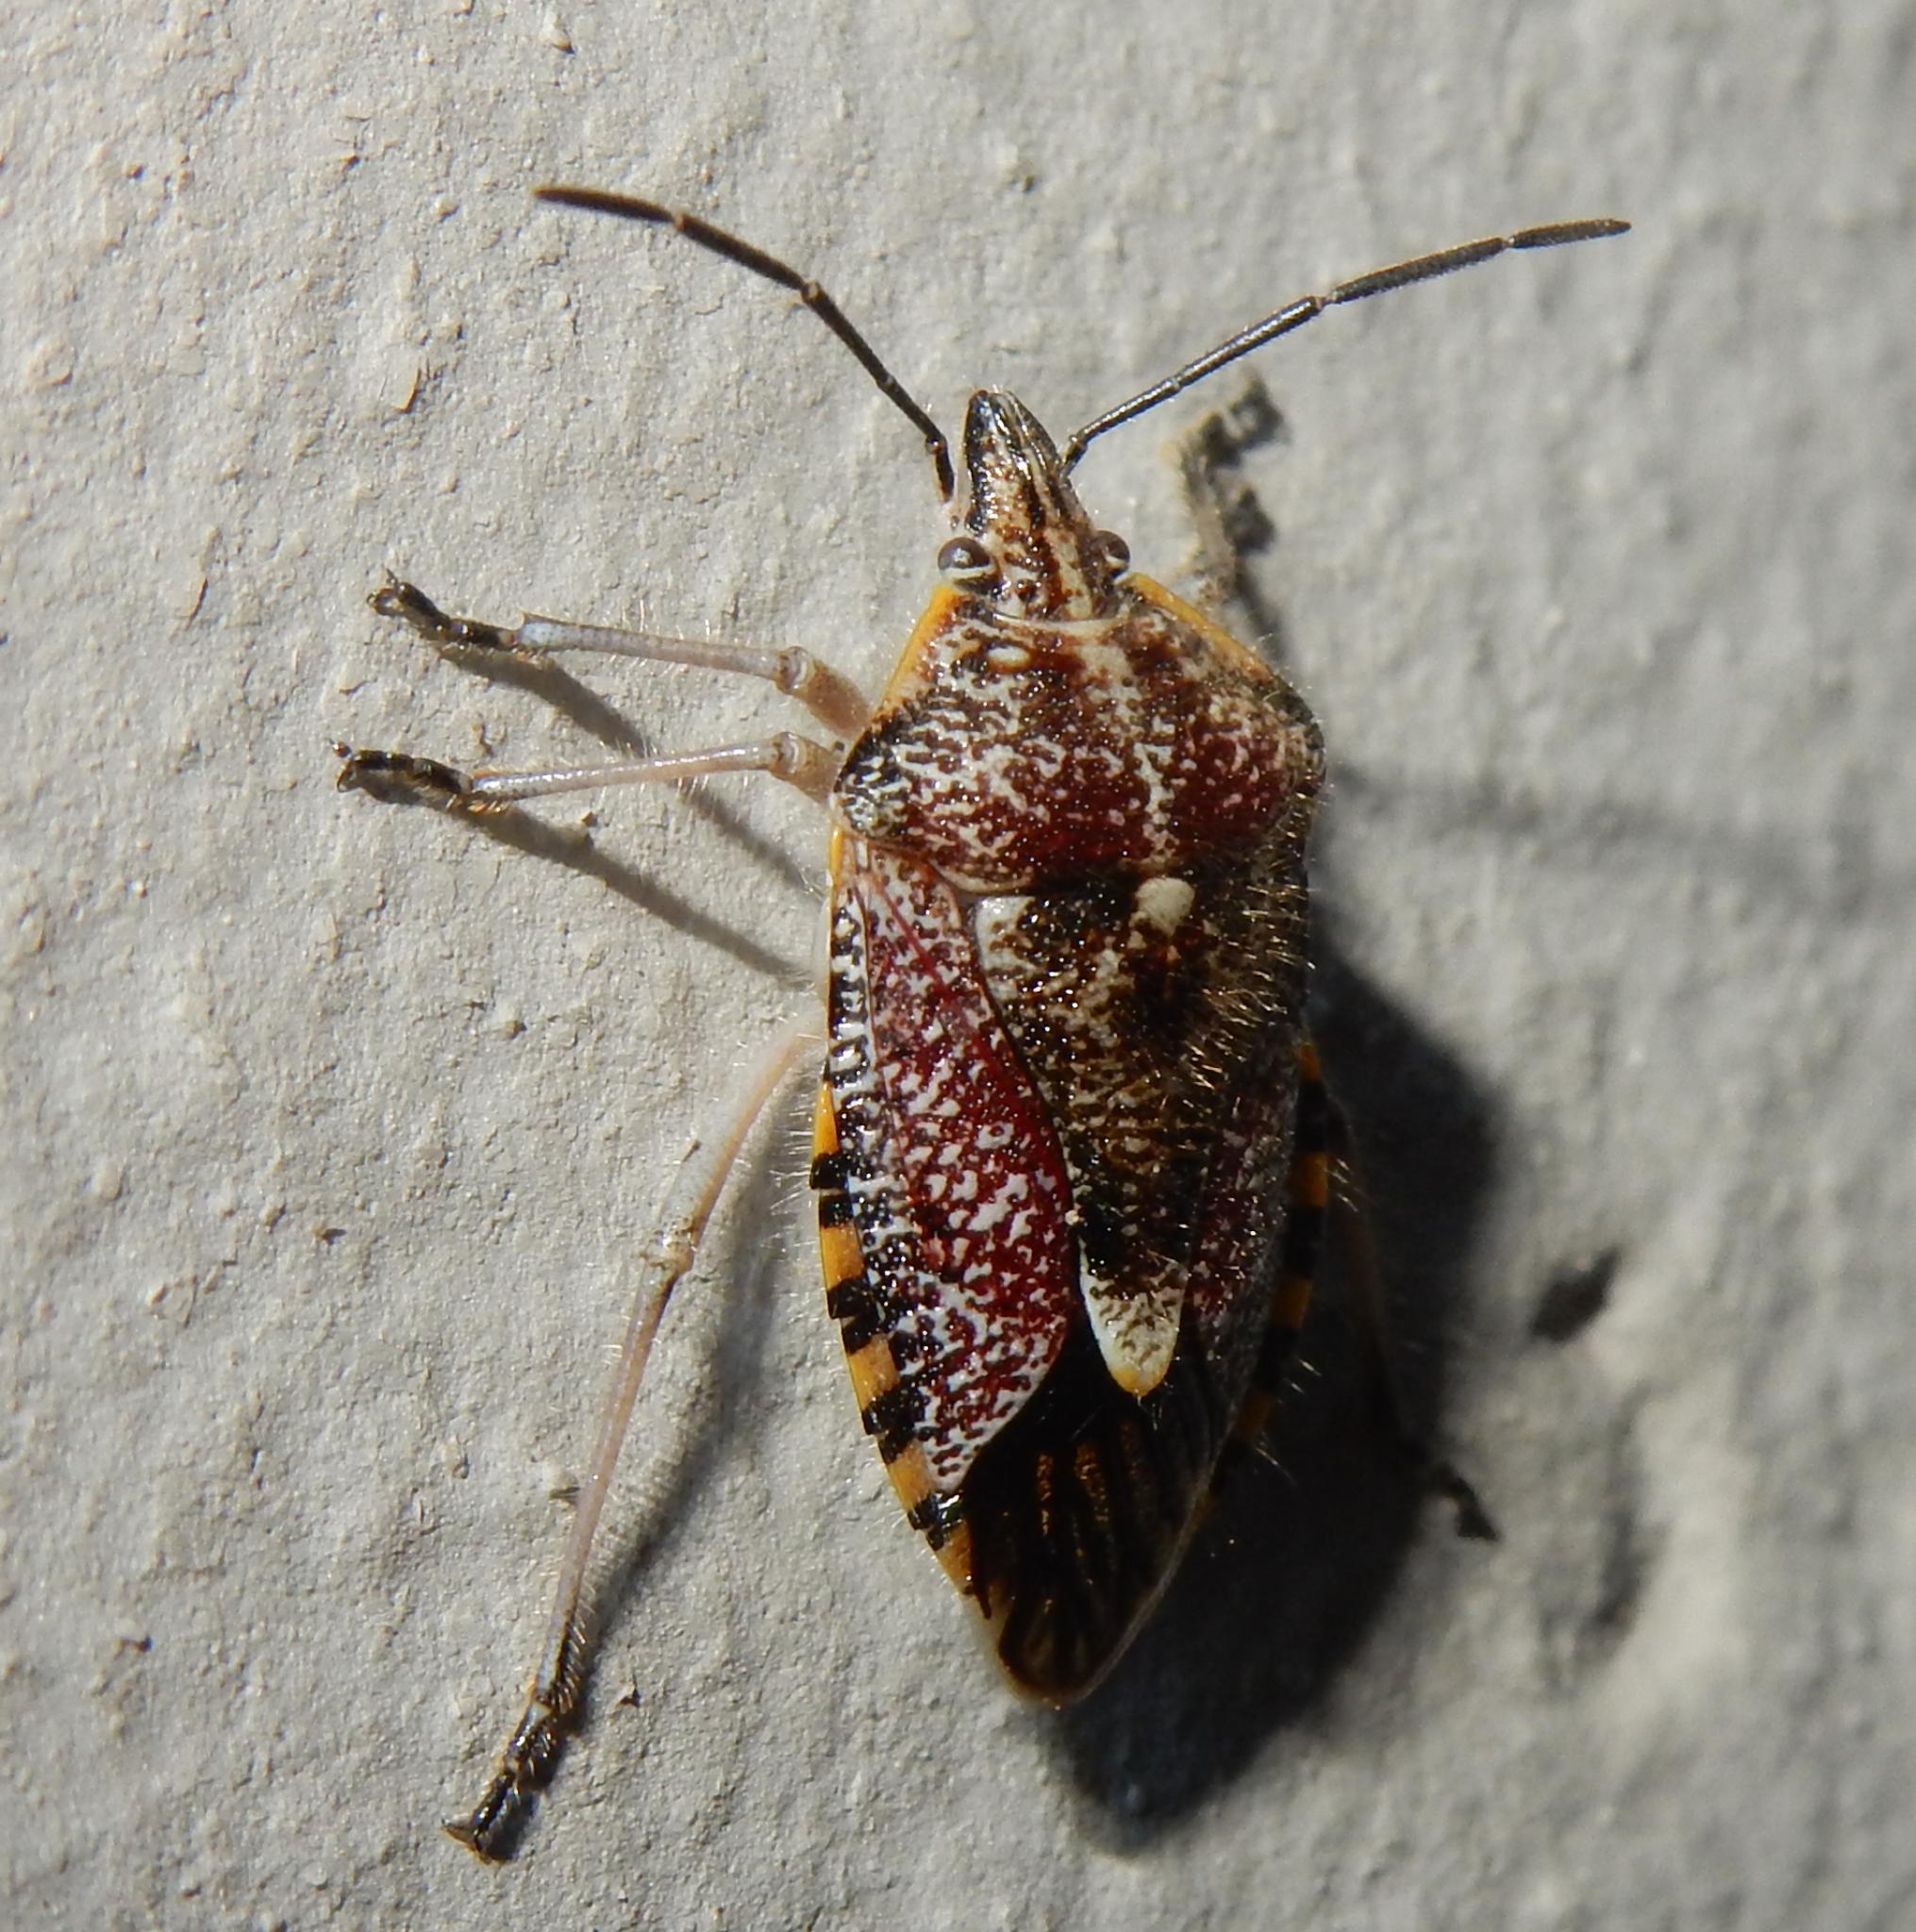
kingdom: Animalia
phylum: Arthropoda
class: Insecta
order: Hemiptera
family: Pentatomidae
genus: Agonoscelis
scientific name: Agonoscelis versicoloratus
